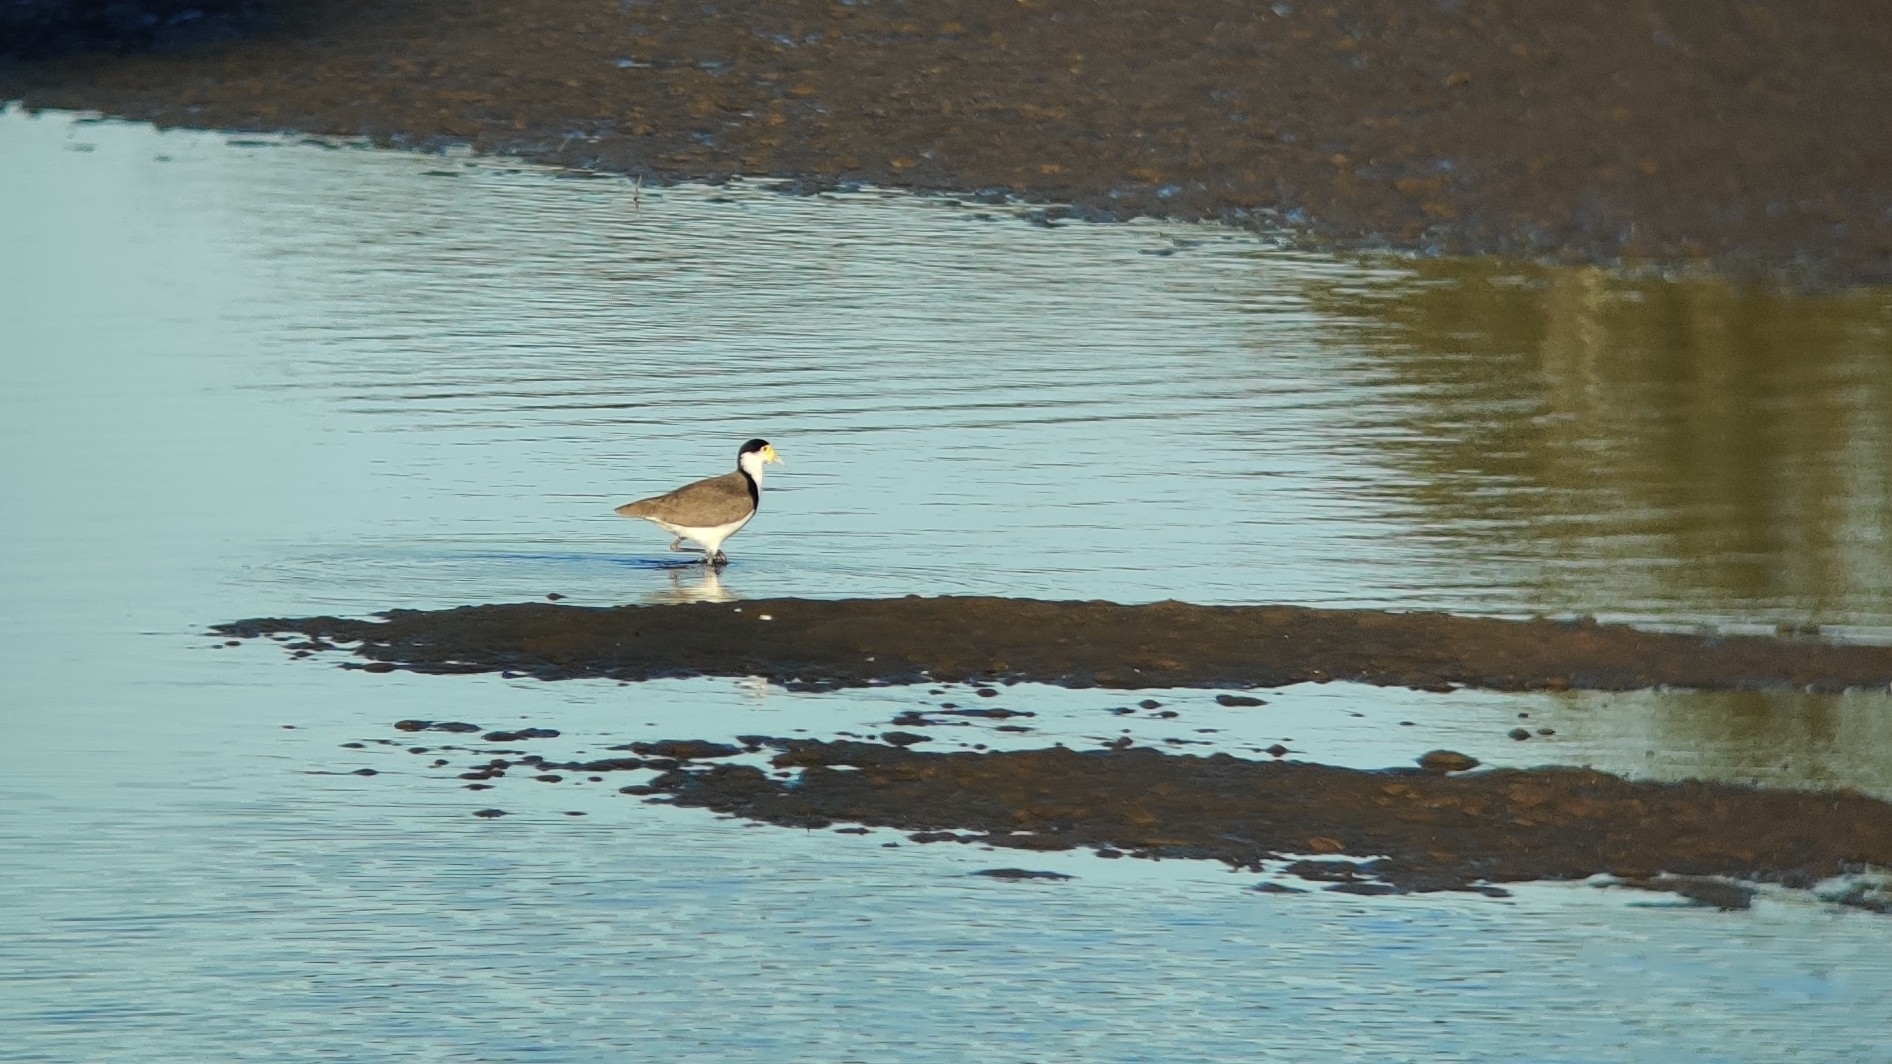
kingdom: Animalia
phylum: Chordata
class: Aves
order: Charadriiformes
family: Charadriidae
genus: Vanellus
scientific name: Vanellus miles
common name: Masked lapwing
